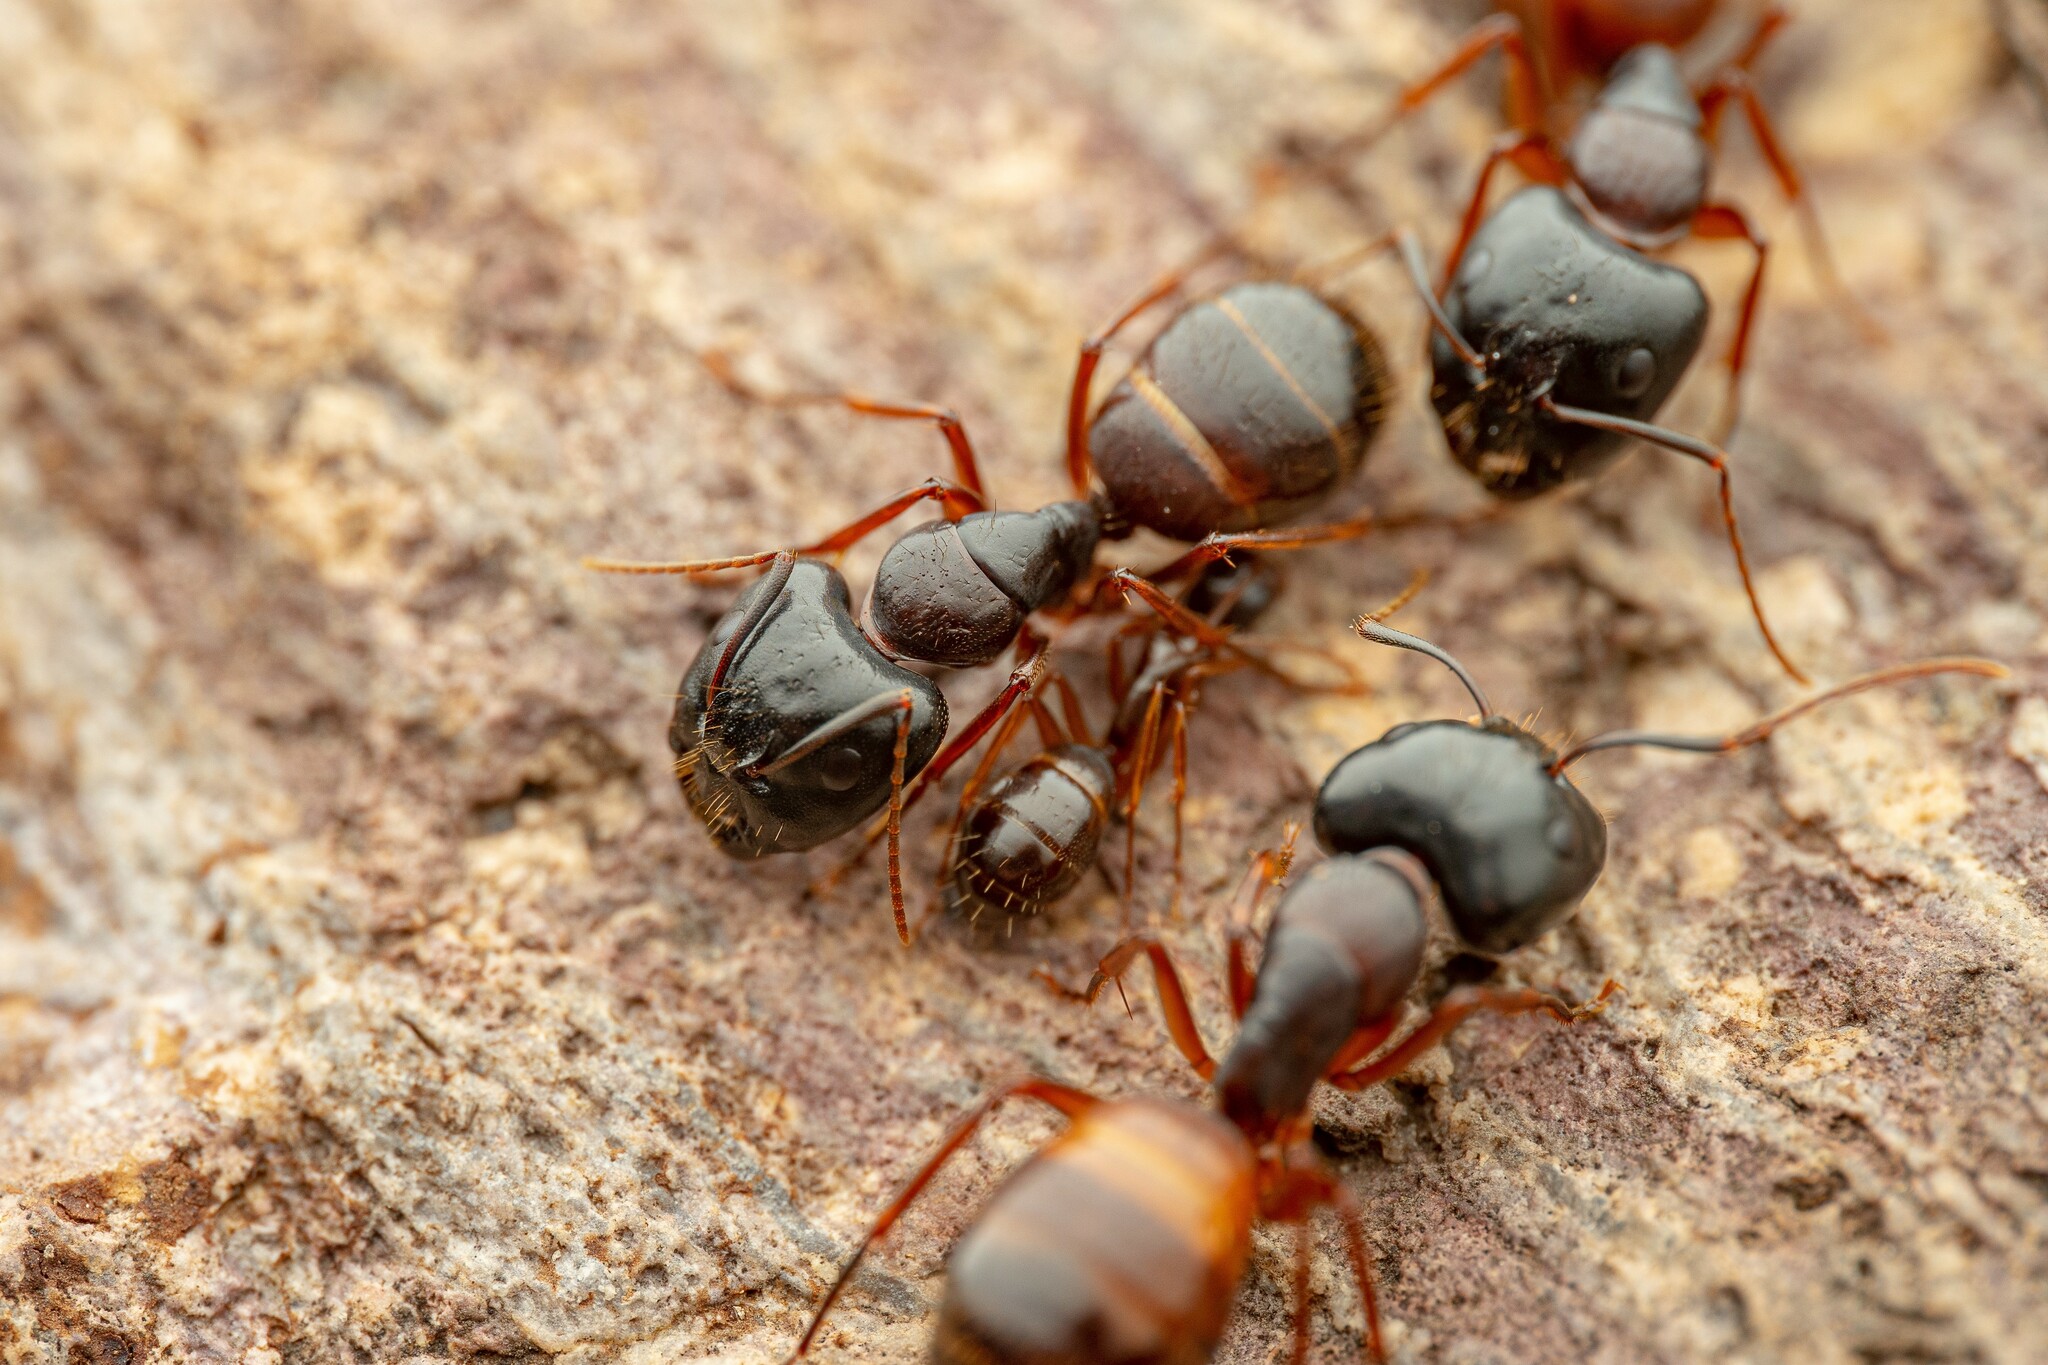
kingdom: Animalia
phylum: Arthropoda
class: Insecta
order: Hymenoptera
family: Formicidae
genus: Camponotus
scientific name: Camponotus sansabeanus
